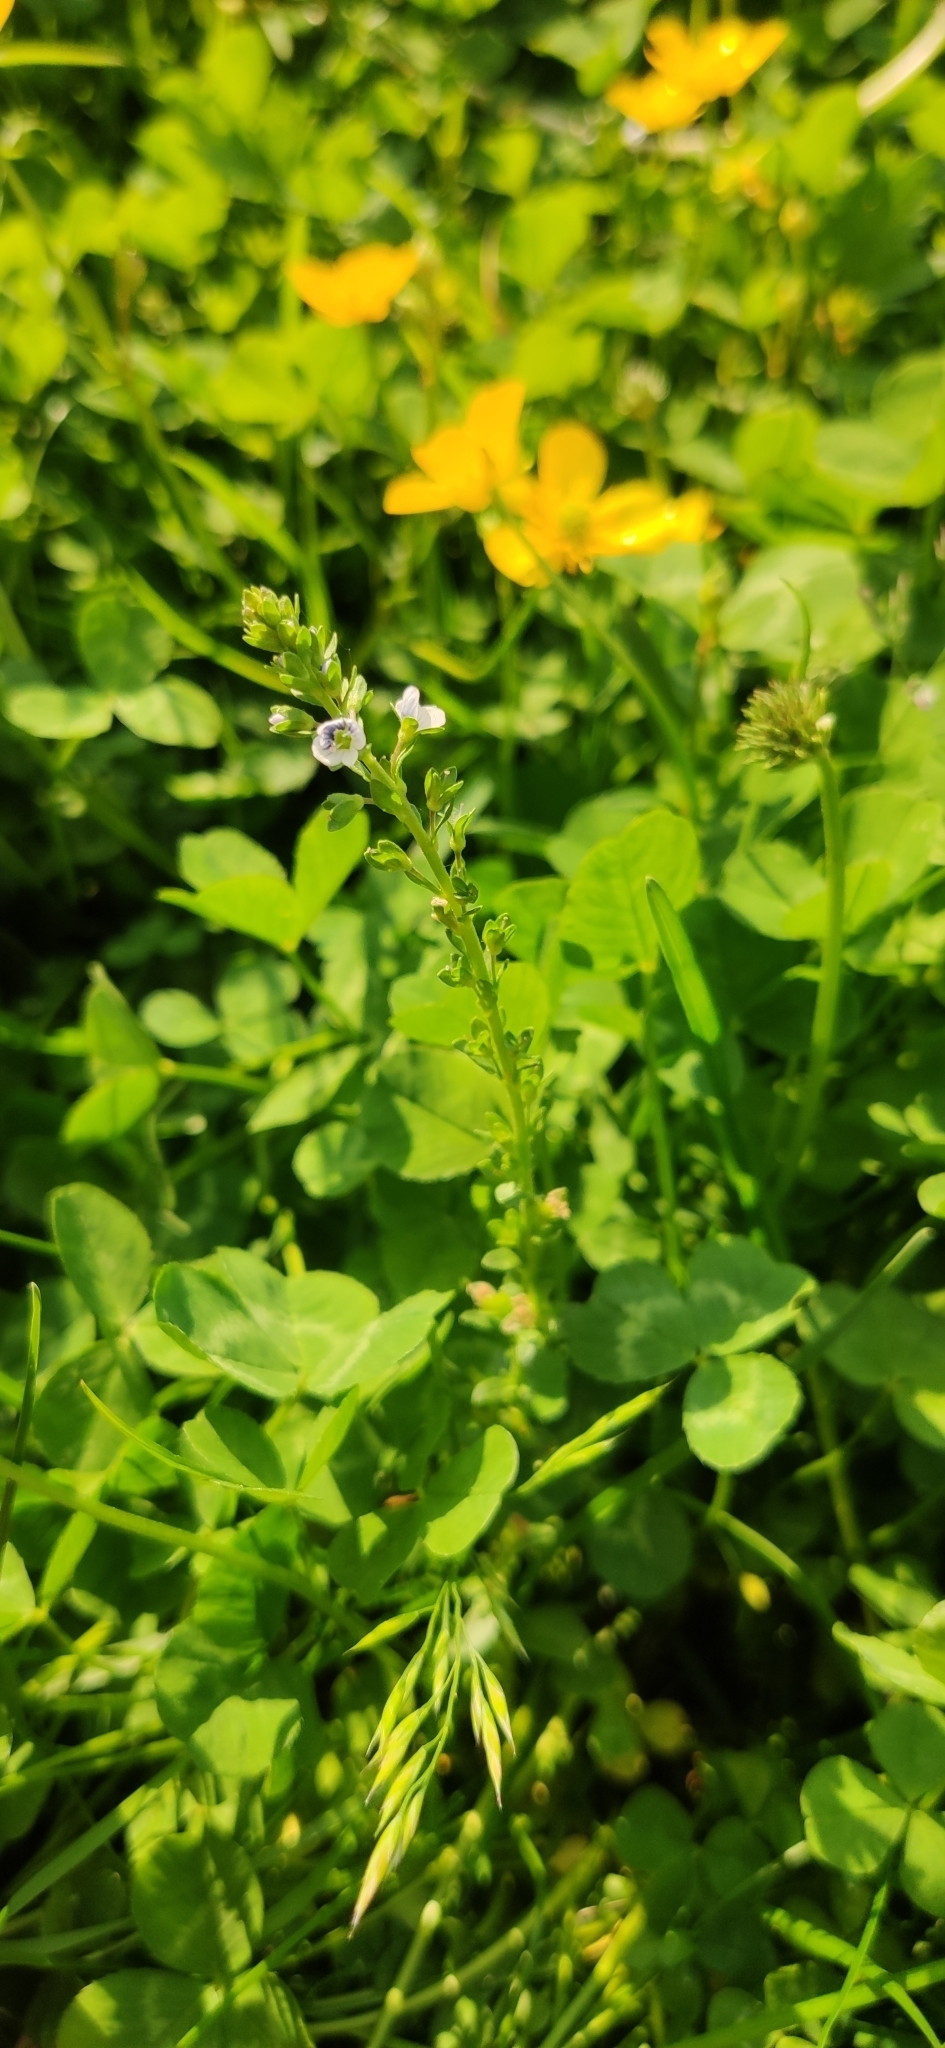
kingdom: Plantae
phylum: Tracheophyta
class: Magnoliopsida
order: Lamiales
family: Plantaginaceae
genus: Veronica
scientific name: Veronica serpyllifolia
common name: Thyme-leaved speedwell
